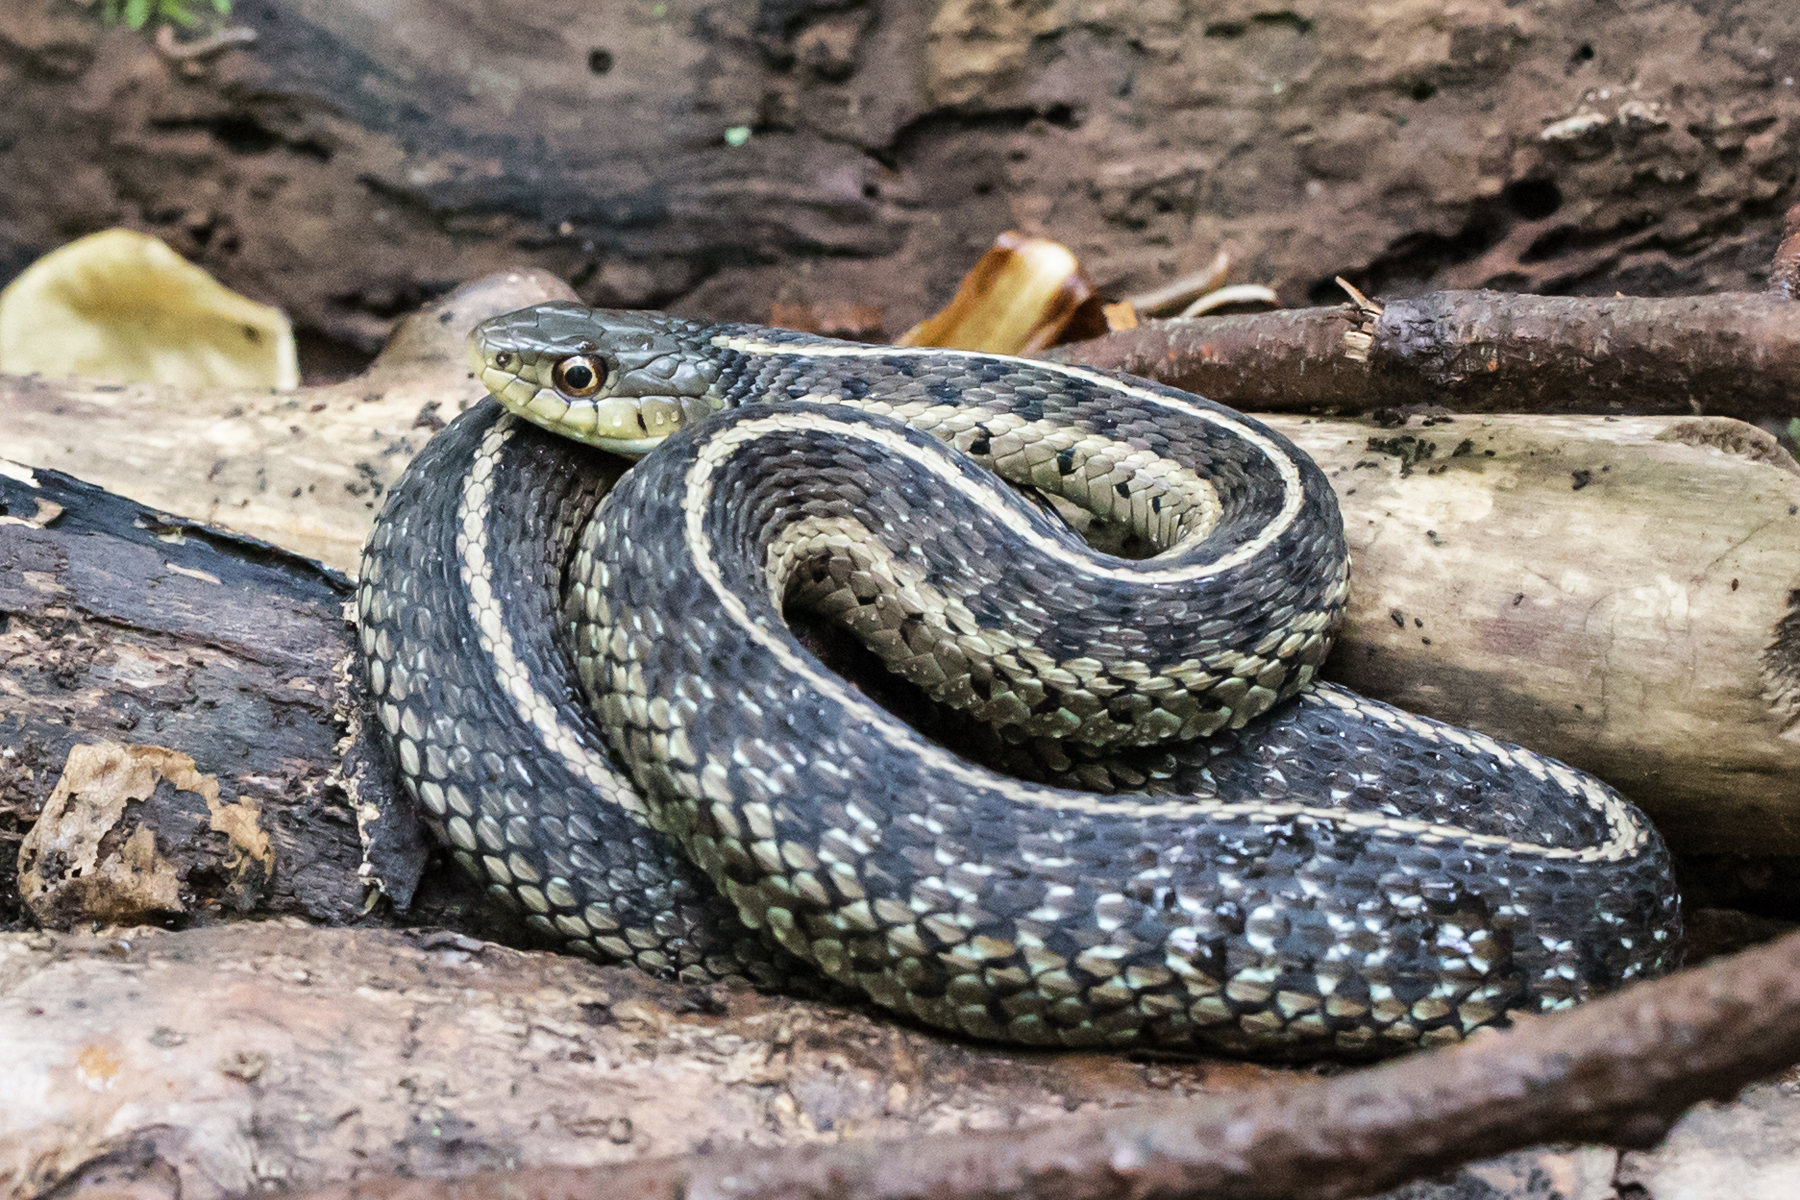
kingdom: Animalia
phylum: Chordata
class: Squamata
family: Colubridae
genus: Thamnophis
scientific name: Thamnophis sirtalis
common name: Common garter snake
